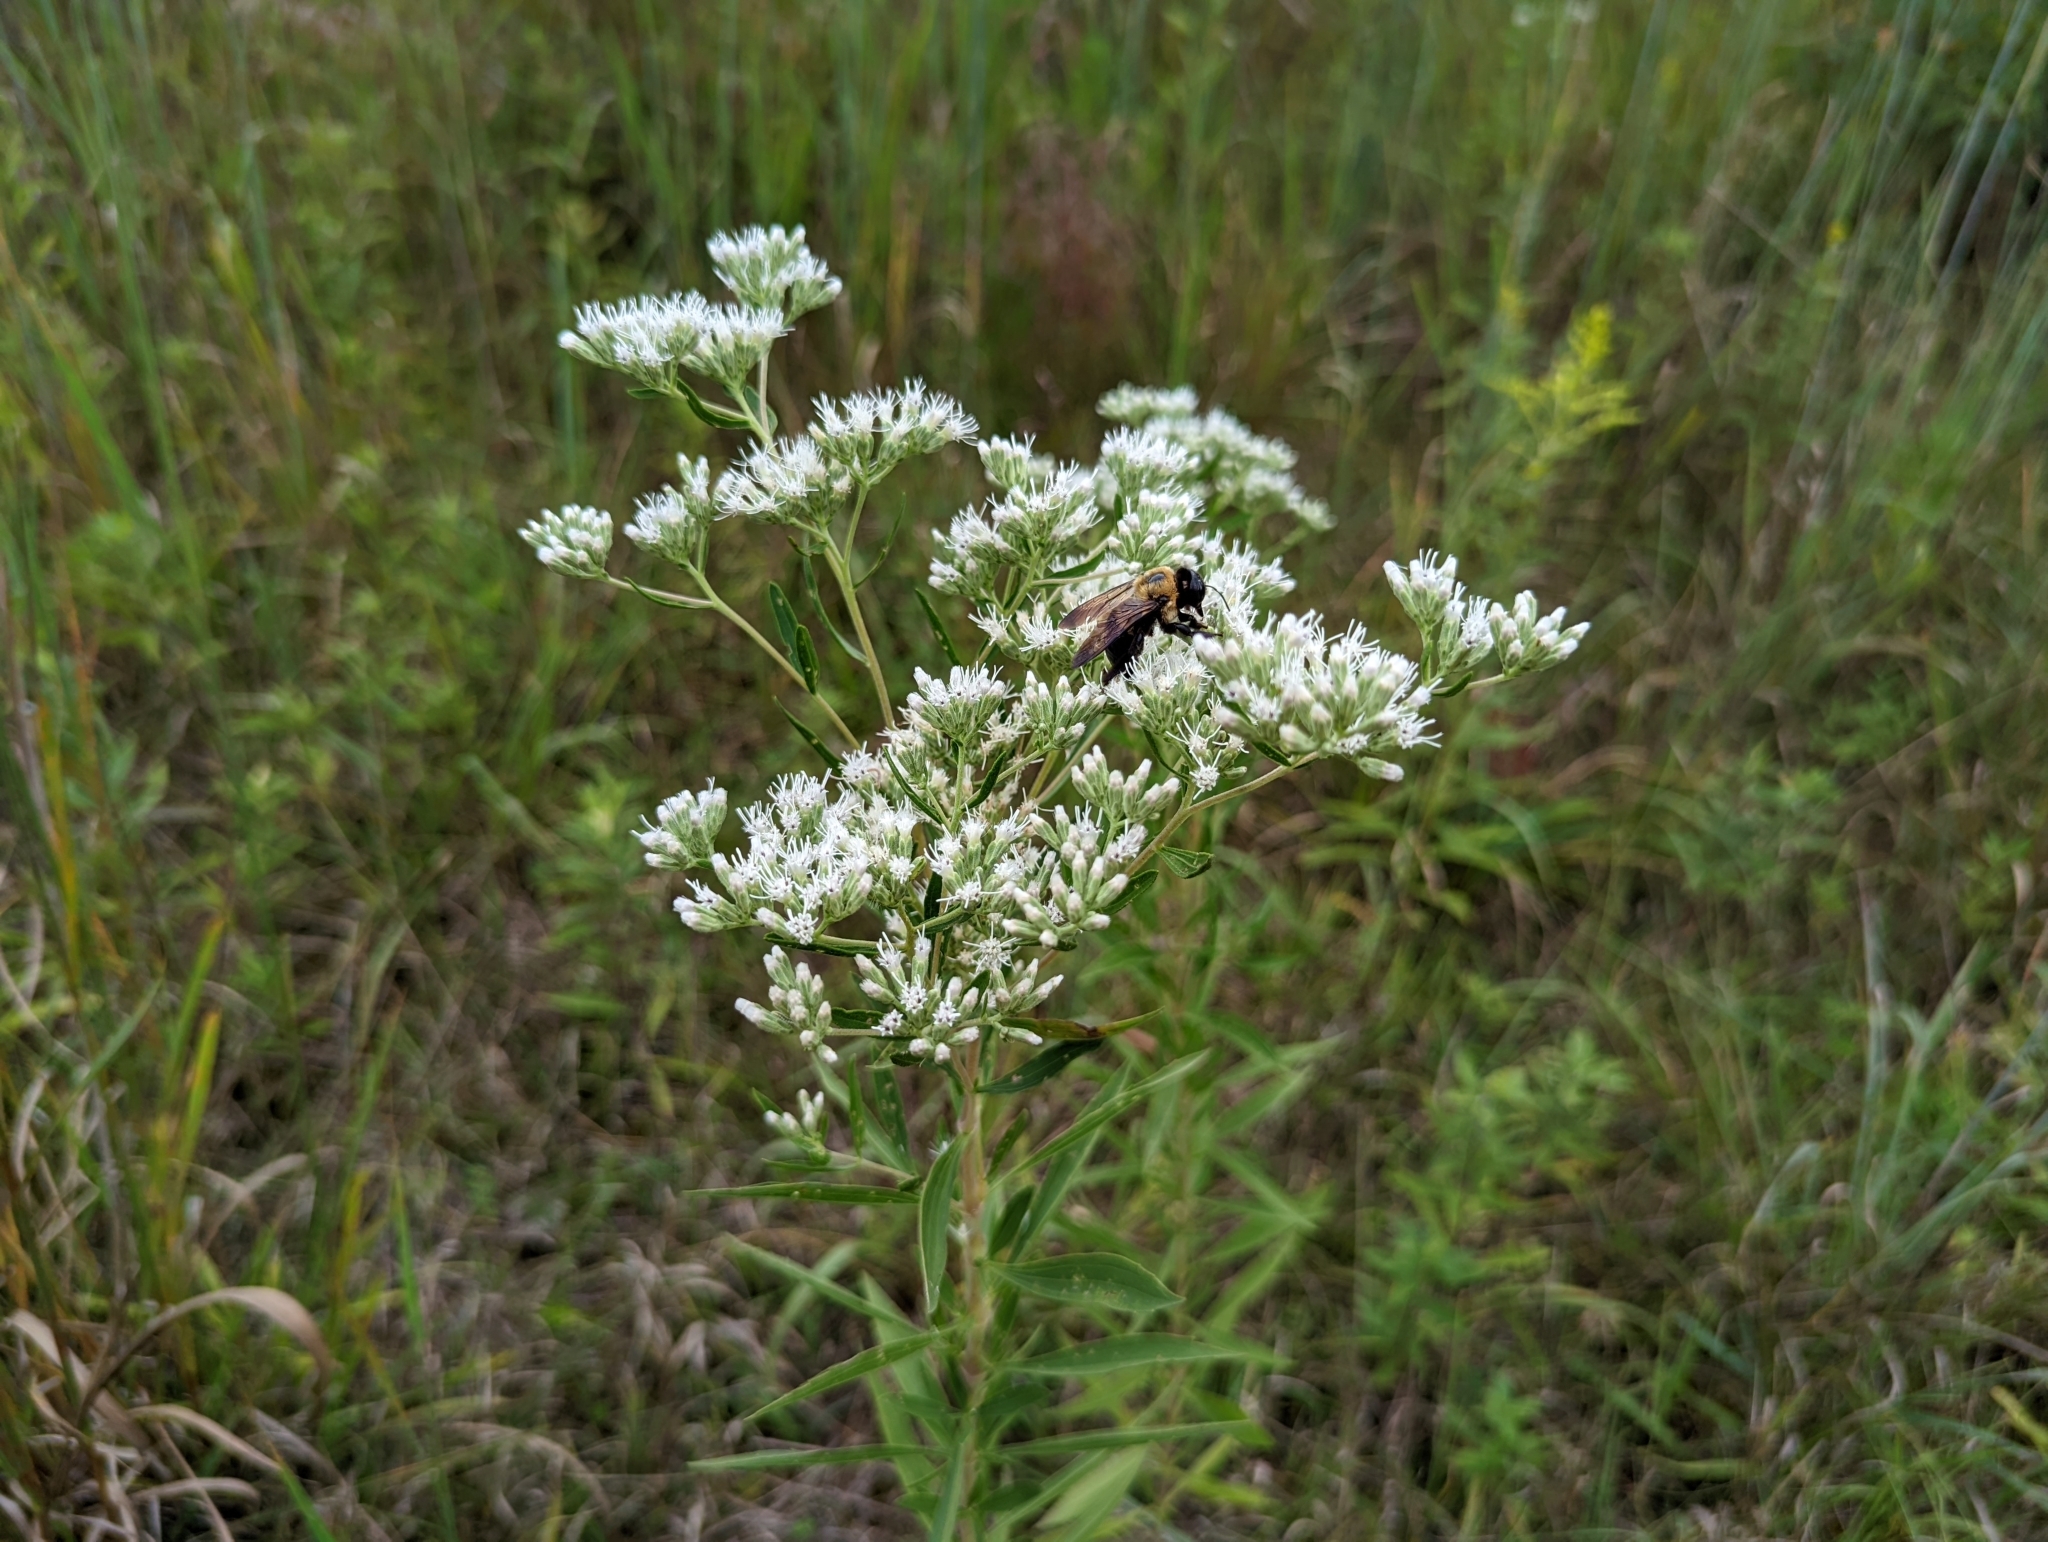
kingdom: Animalia
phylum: Arthropoda
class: Insecta
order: Hymenoptera
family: Apidae
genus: Xylocopa
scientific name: Xylocopa virginica
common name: Carpenter bee
